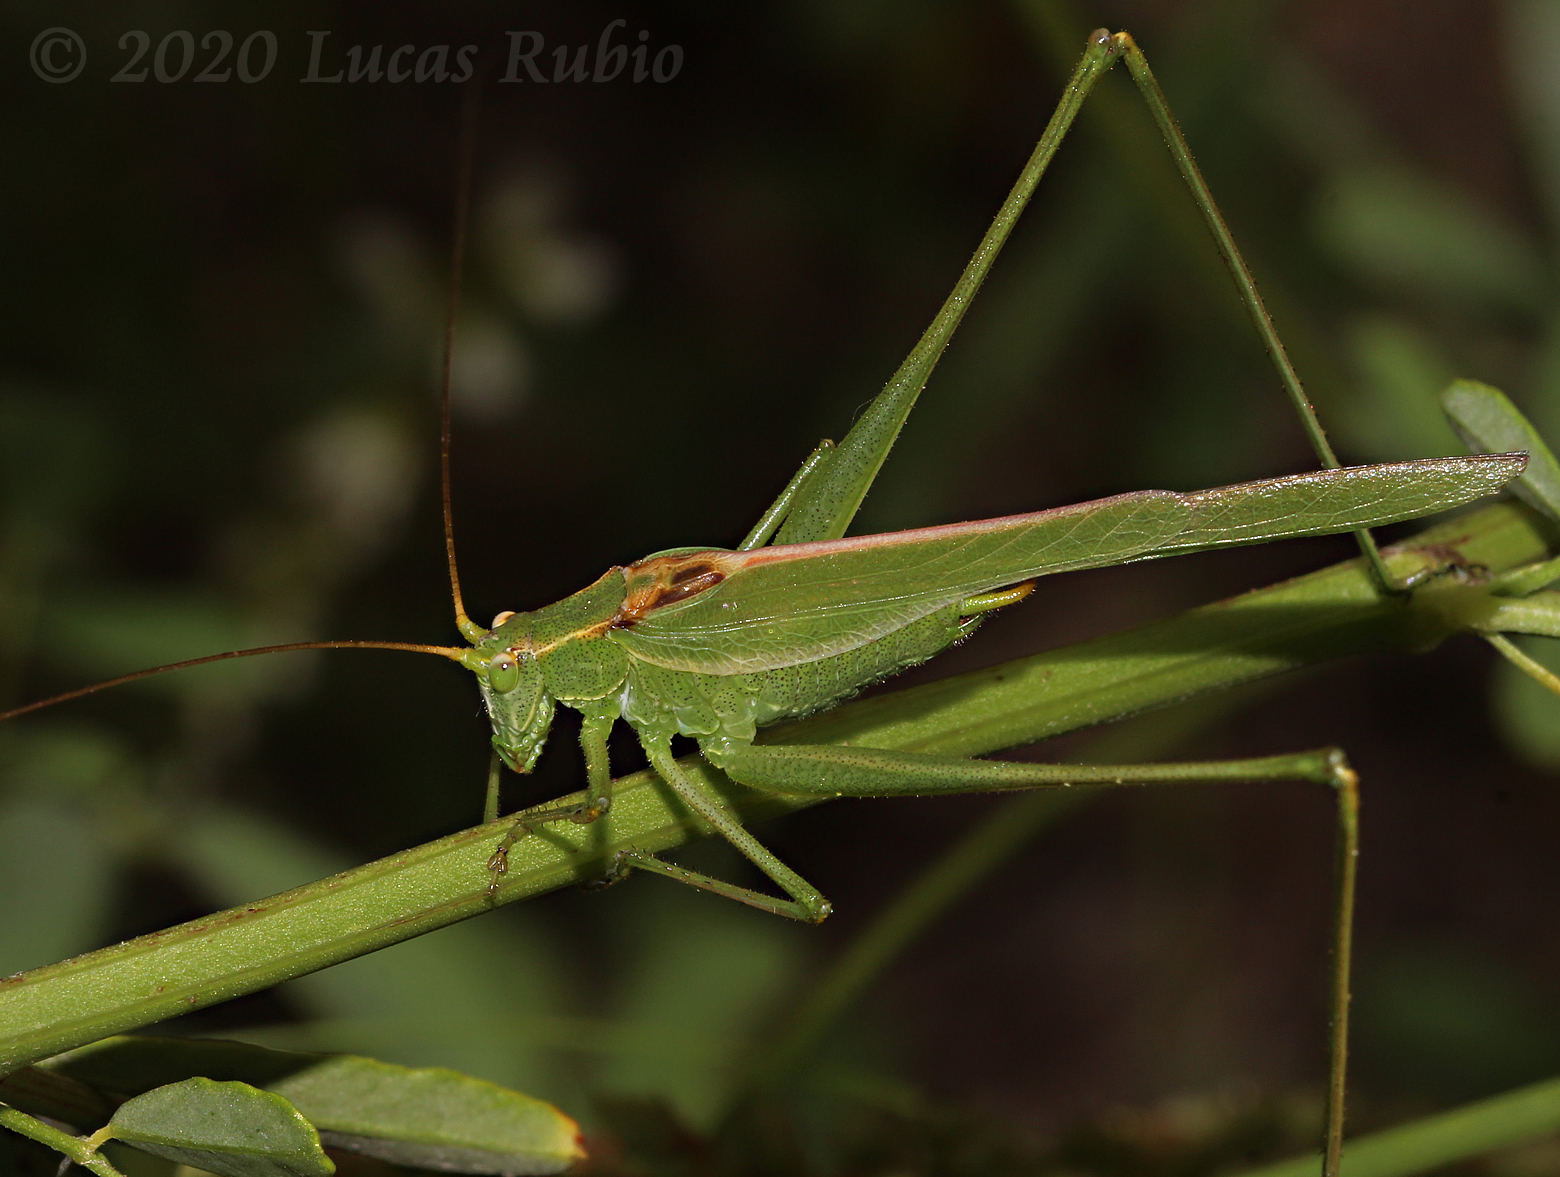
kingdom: Animalia
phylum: Arthropoda
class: Insecta
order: Orthoptera
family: Tettigoniidae
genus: Burgilis
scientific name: Burgilis curta
